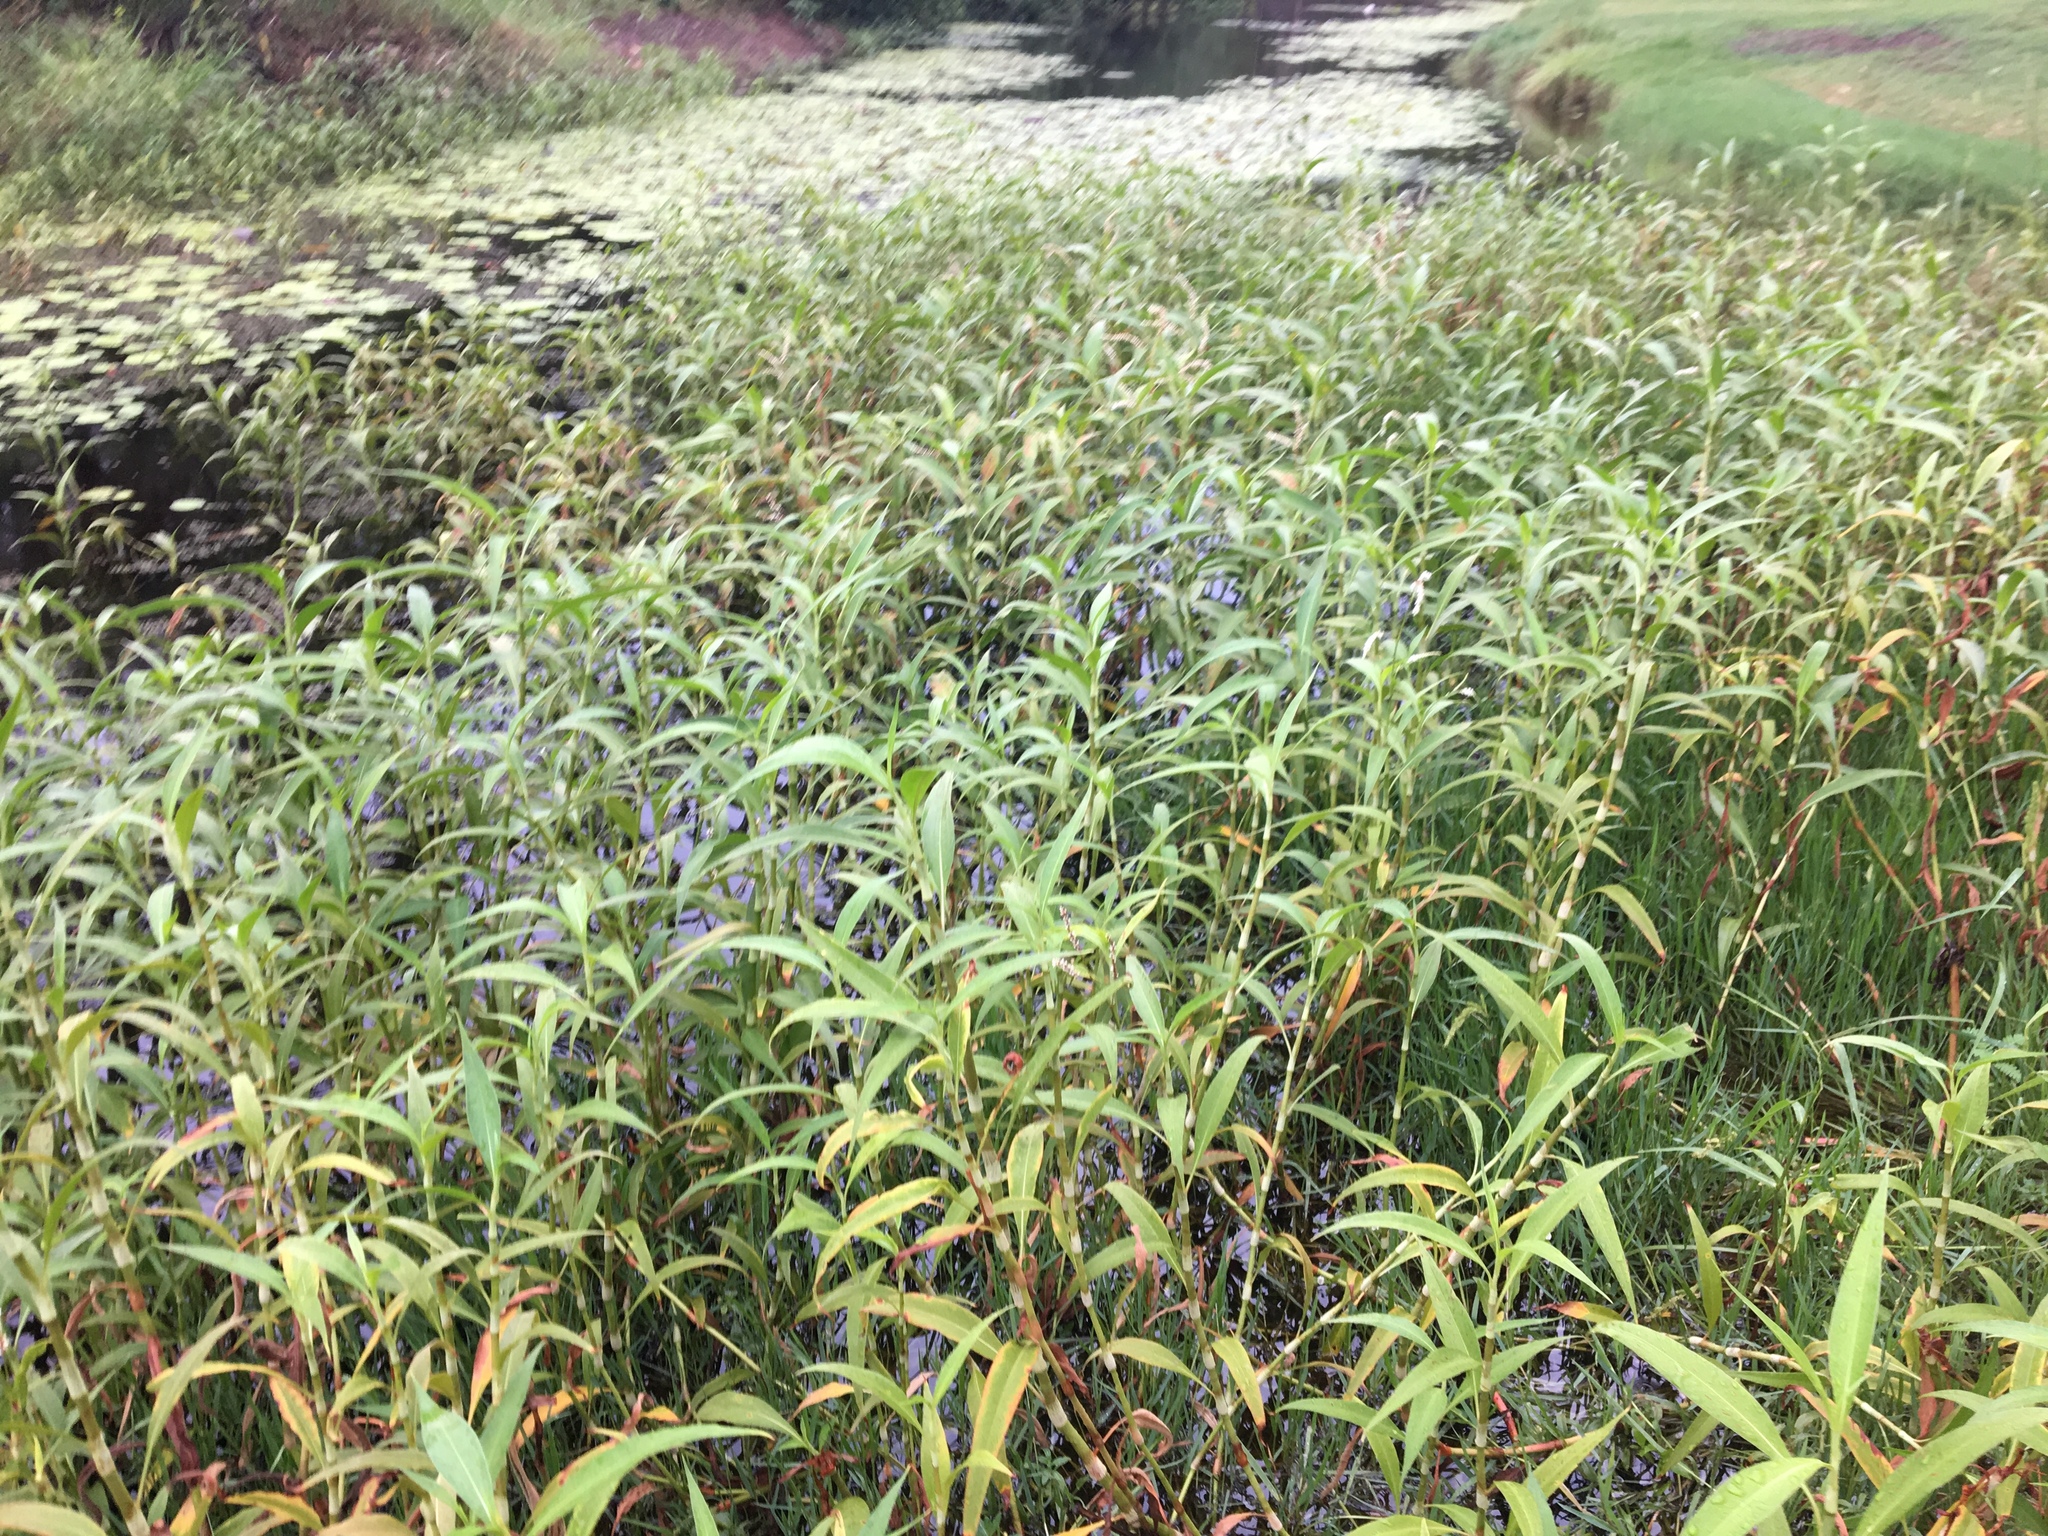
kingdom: Plantae
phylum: Tracheophyta
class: Magnoliopsida
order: Caryophyllales
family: Polygonaceae
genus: Persicaria
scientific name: Persicaria attenuata
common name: Hairy knotweed
